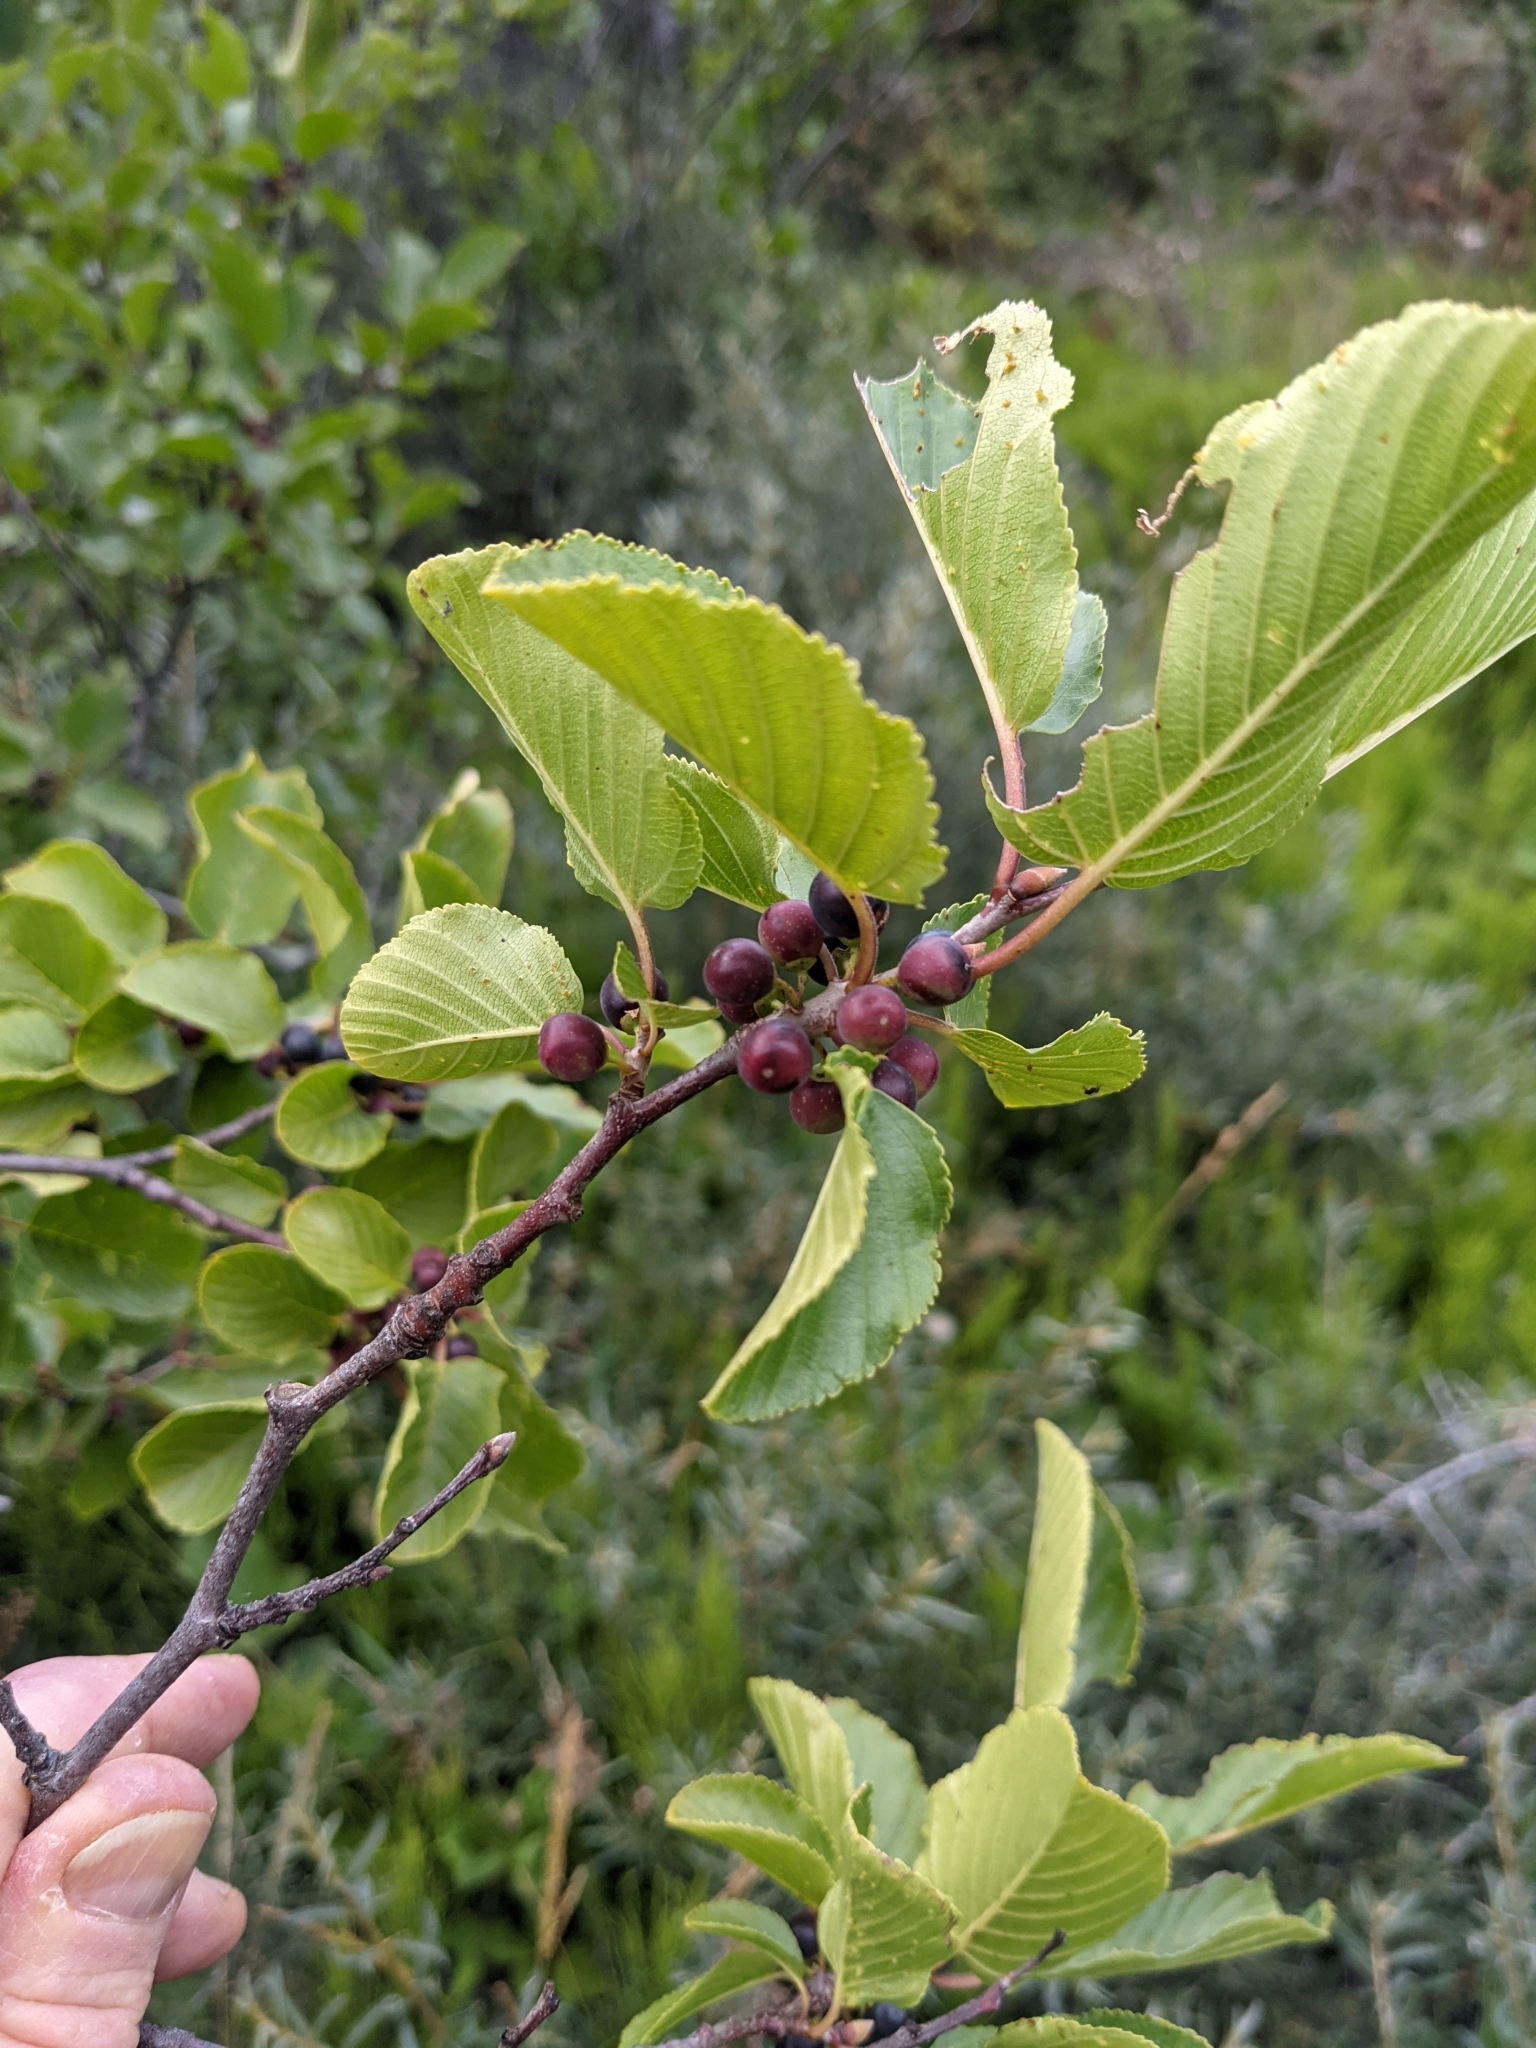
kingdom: Plantae
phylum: Tracheophyta
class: Magnoliopsida
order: Rosales
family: Rhamnaceae
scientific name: Rhamnaceae
